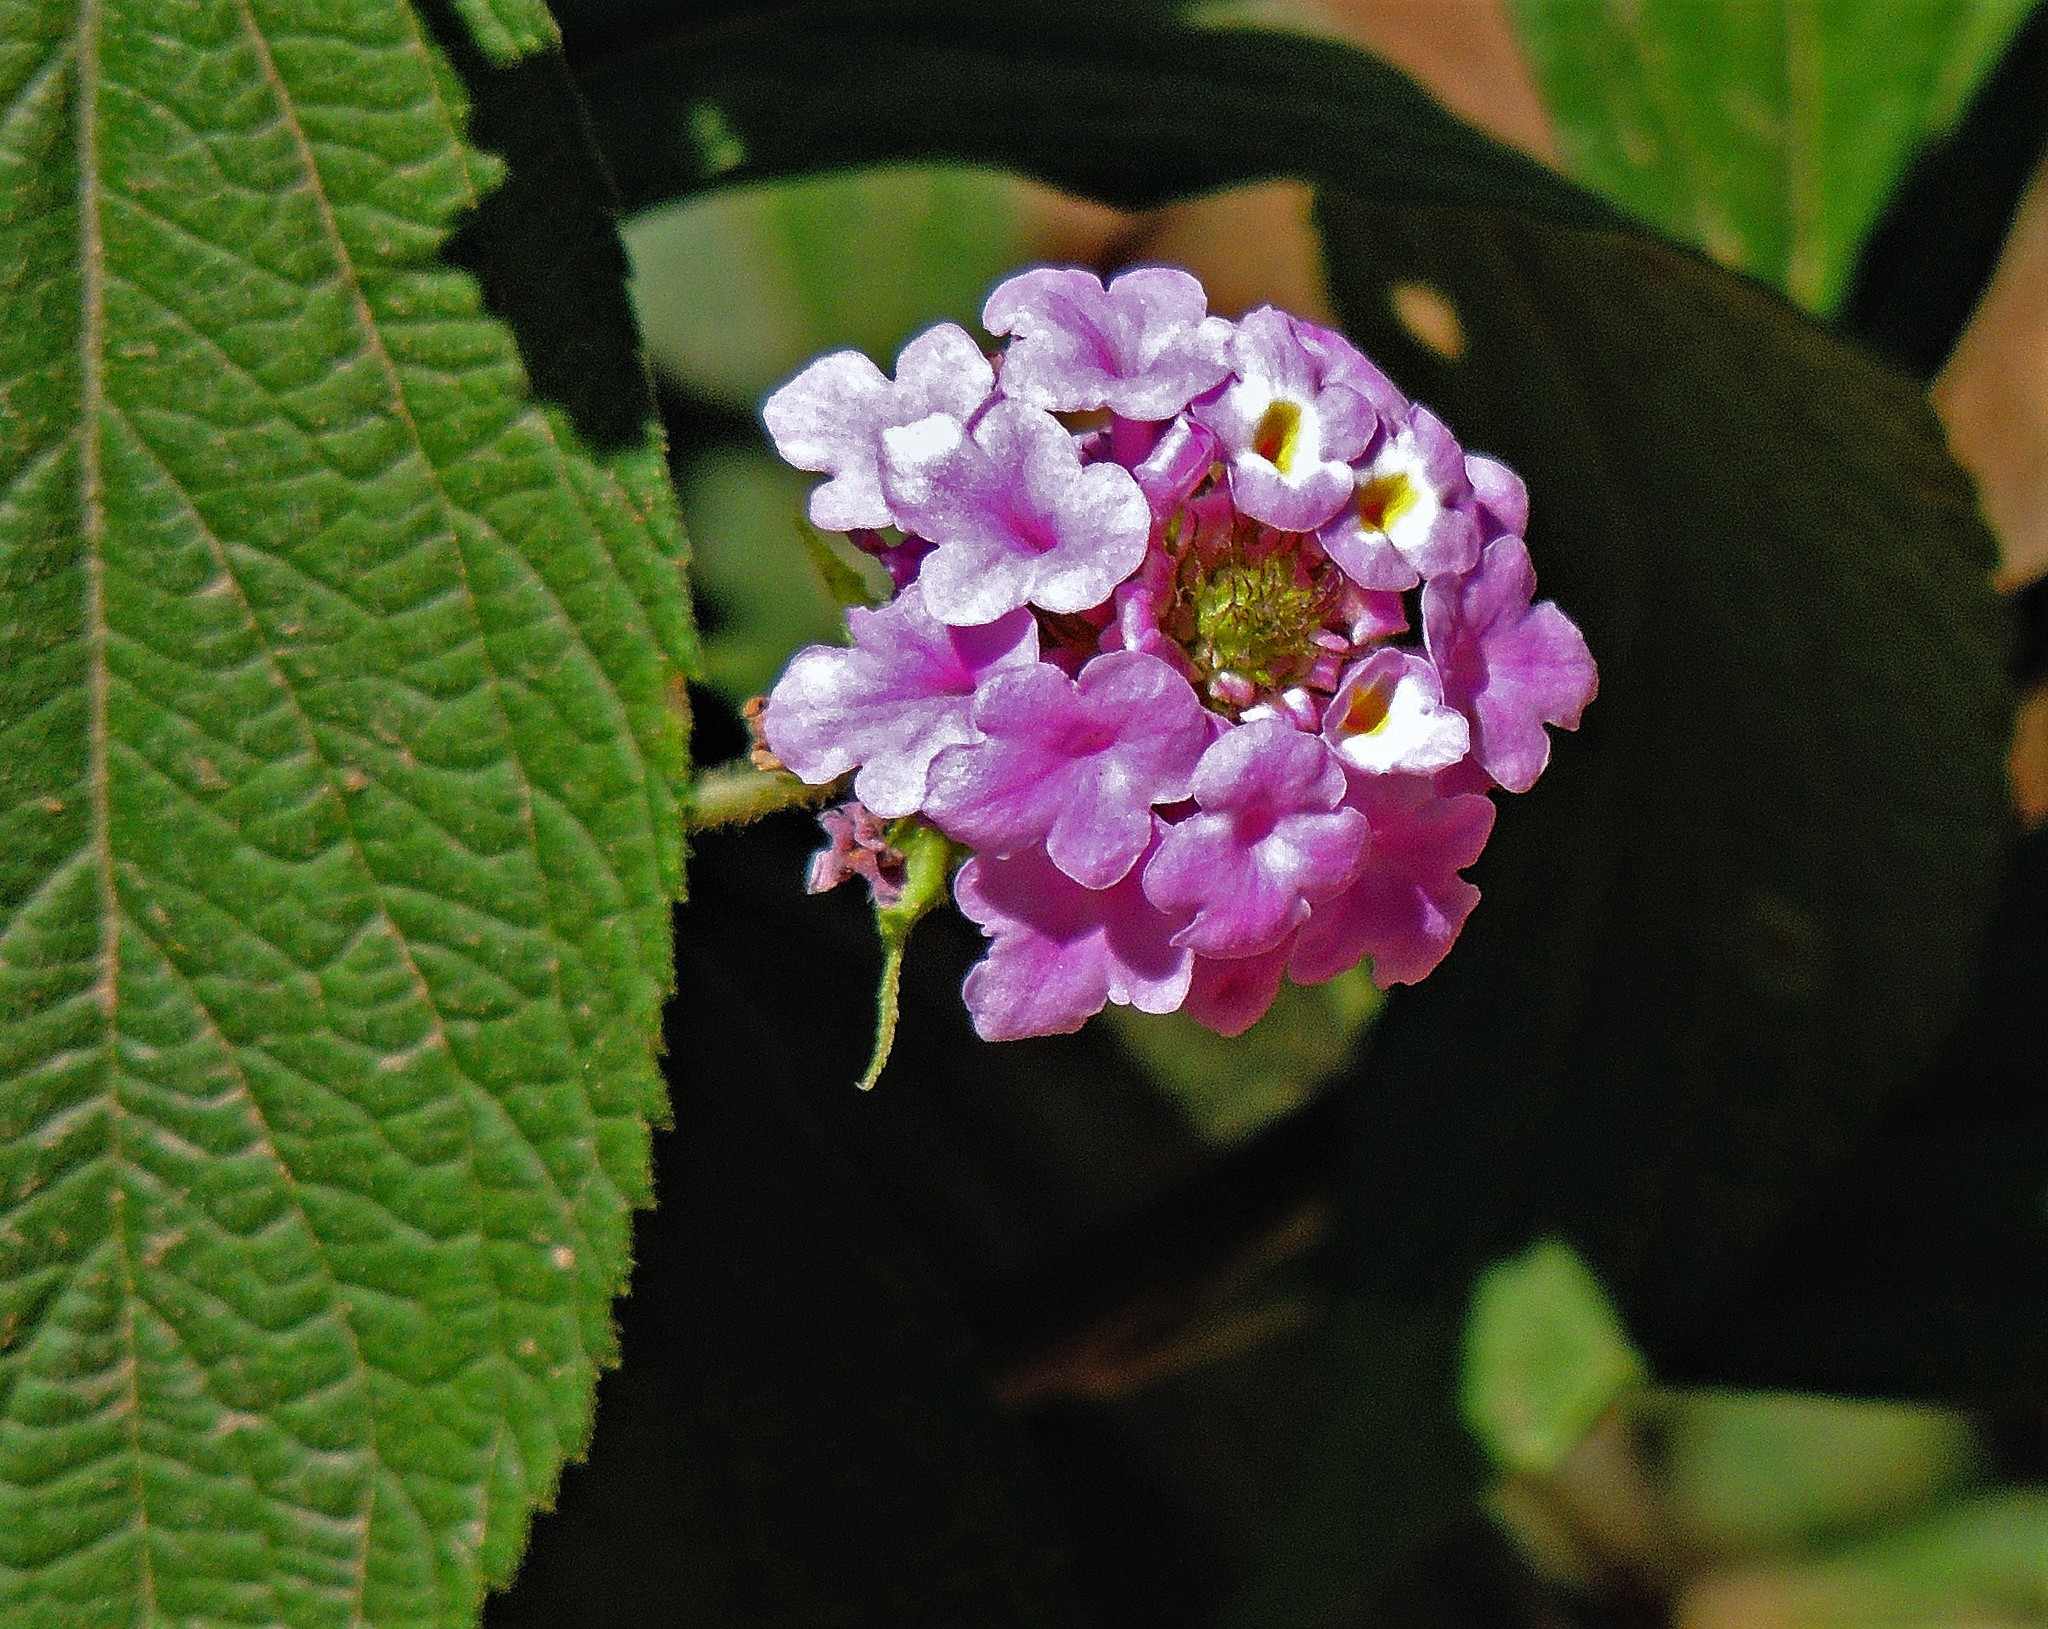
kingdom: Plantae
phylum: Tracheophyta
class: Magnoliopsida
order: Lamiales
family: Verbenaceae
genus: Lantana
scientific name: Lantana trifolia
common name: Sweet-sage
